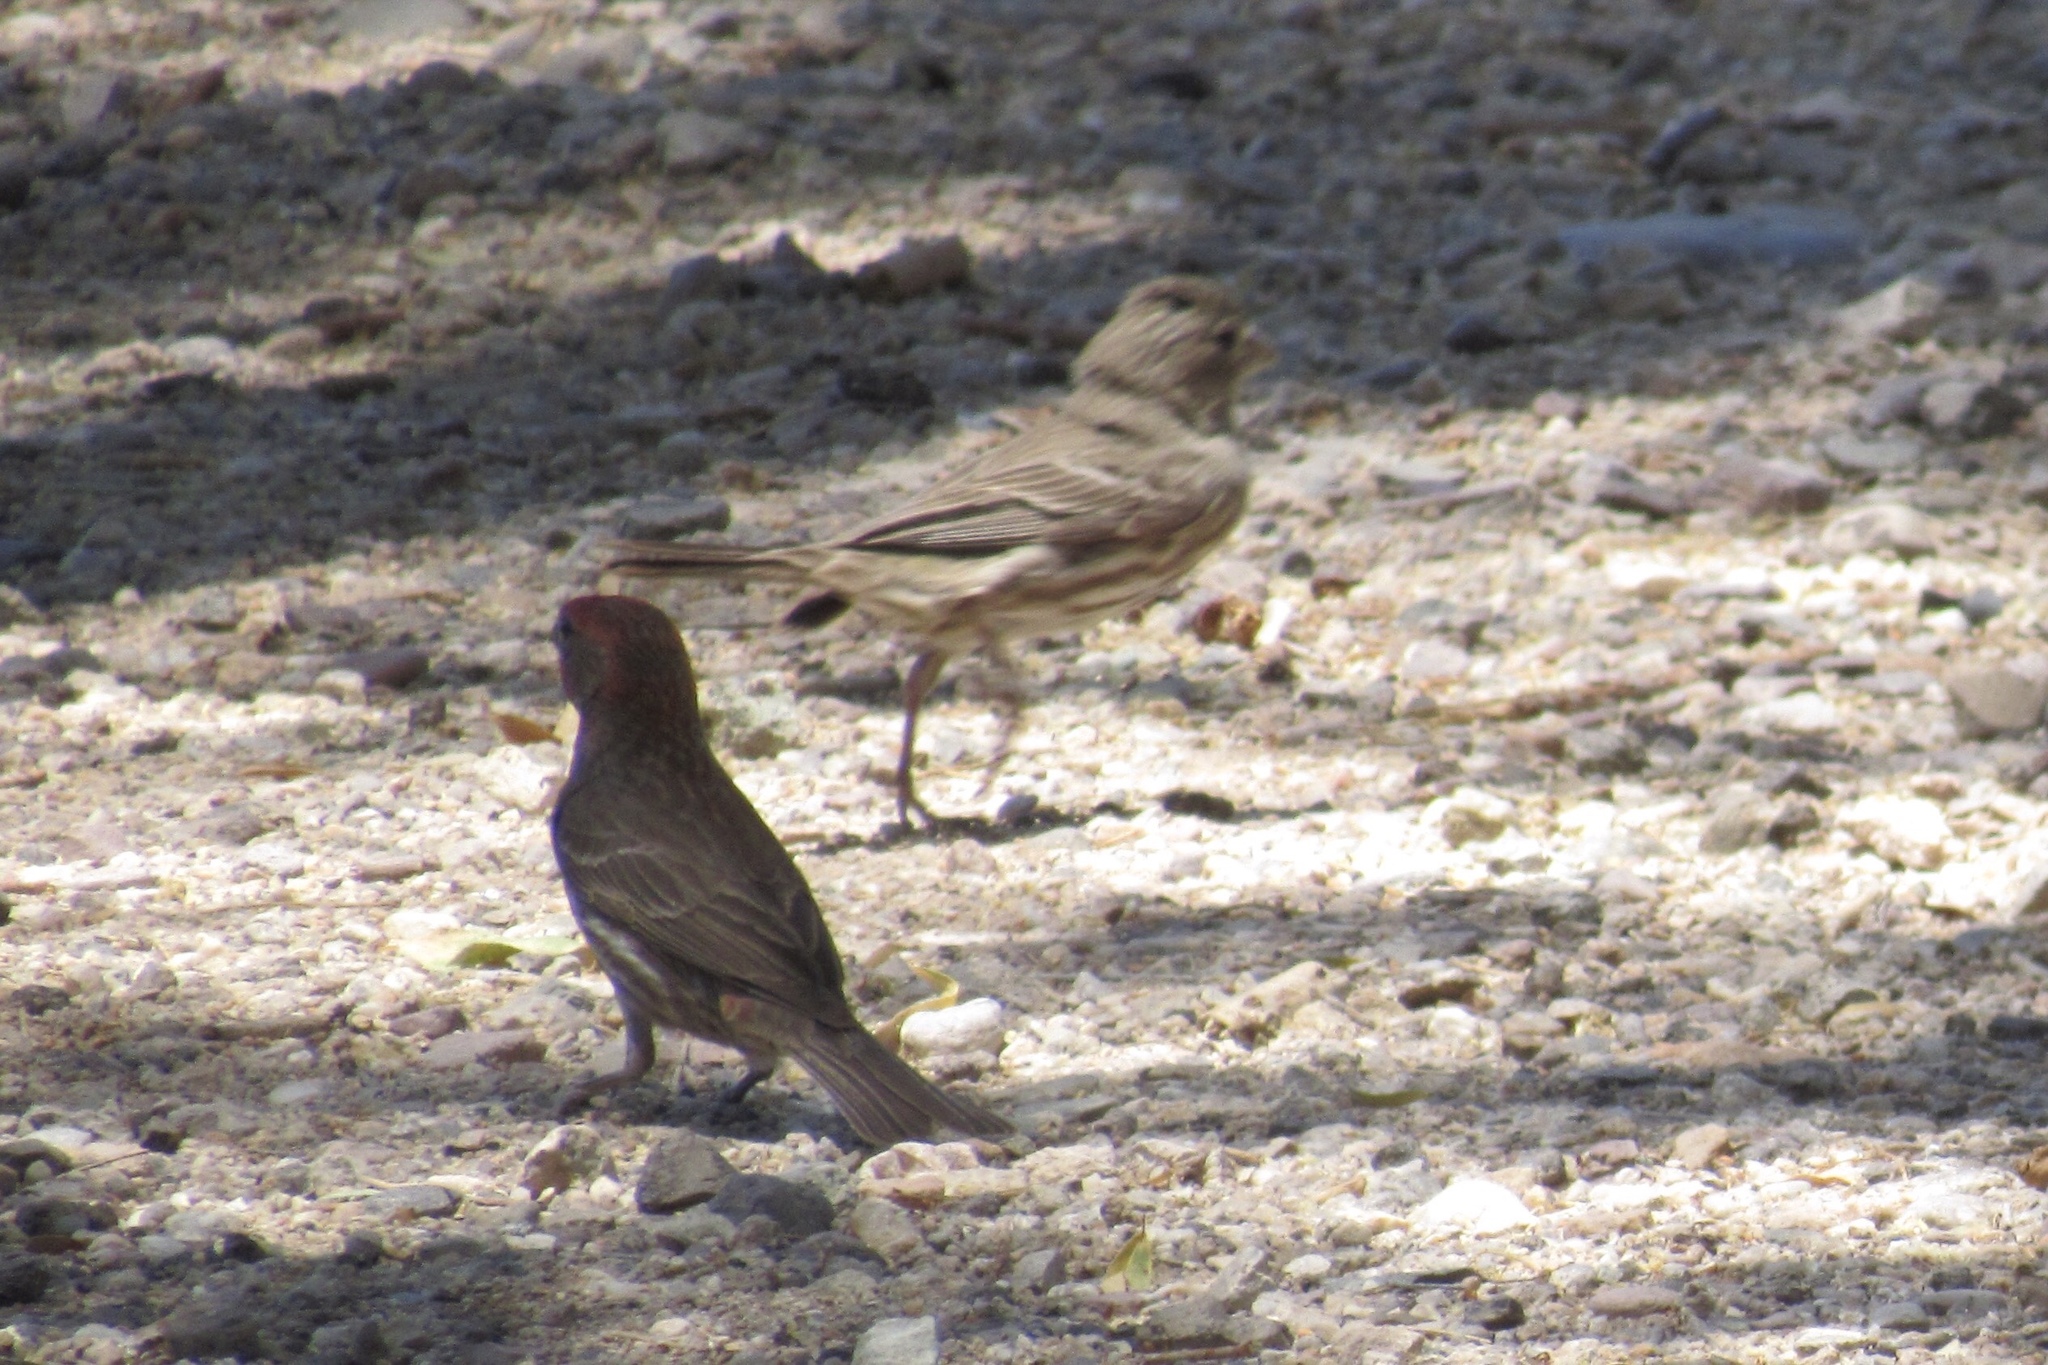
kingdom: Animalia
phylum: Chordata
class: Aves
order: Passeriformes
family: Fringillidae
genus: Haemorhous
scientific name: Haemorhous mexicanus
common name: House finch
